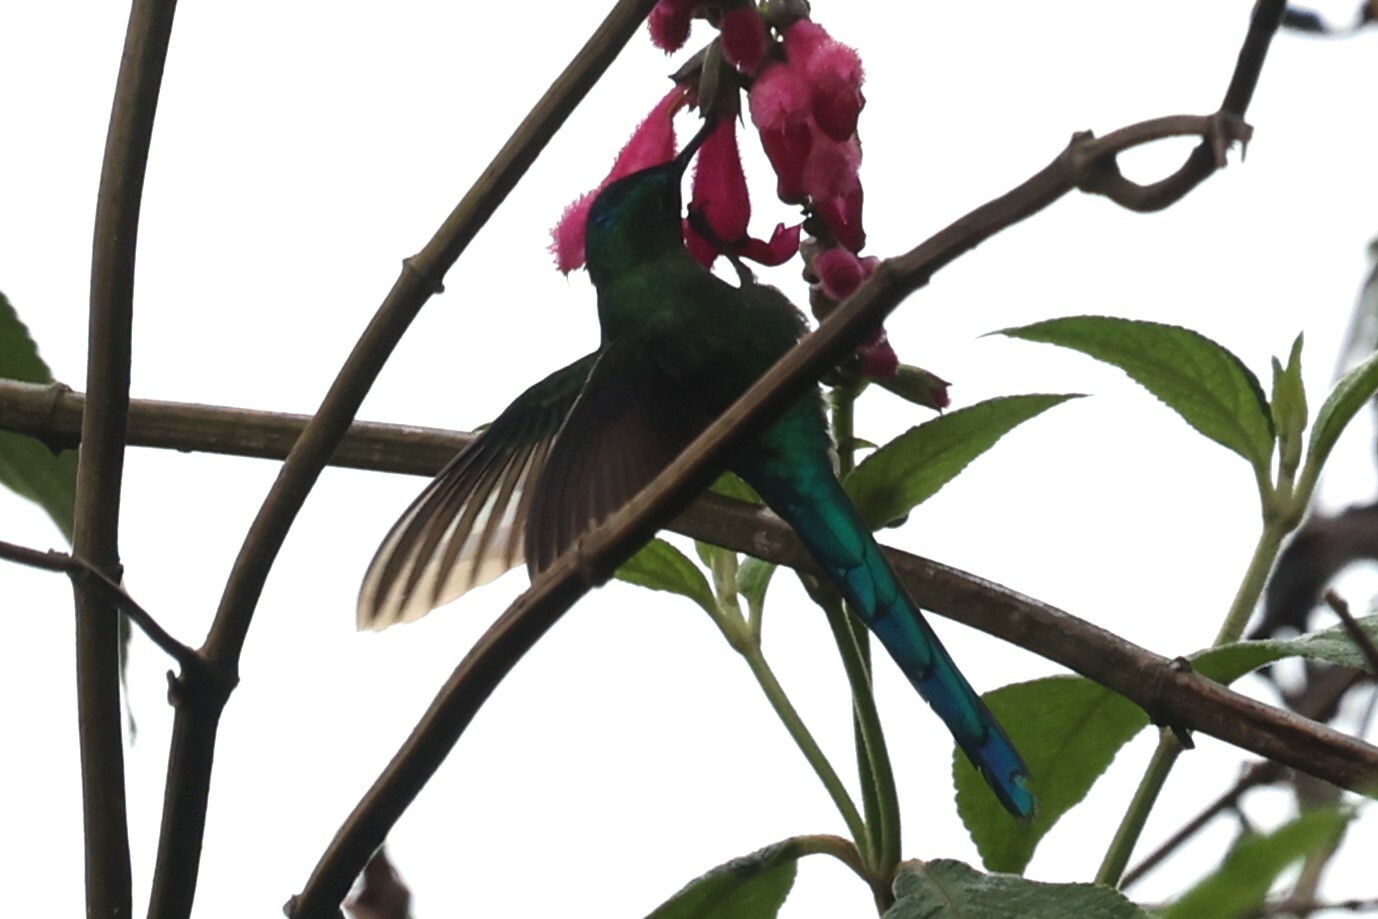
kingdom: Animalia
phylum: Chordata
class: Aves
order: Apodiformes
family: Trochilidae
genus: Aglaiocercus
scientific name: Aglaiocercus kingii
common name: Long-tailed sylph
